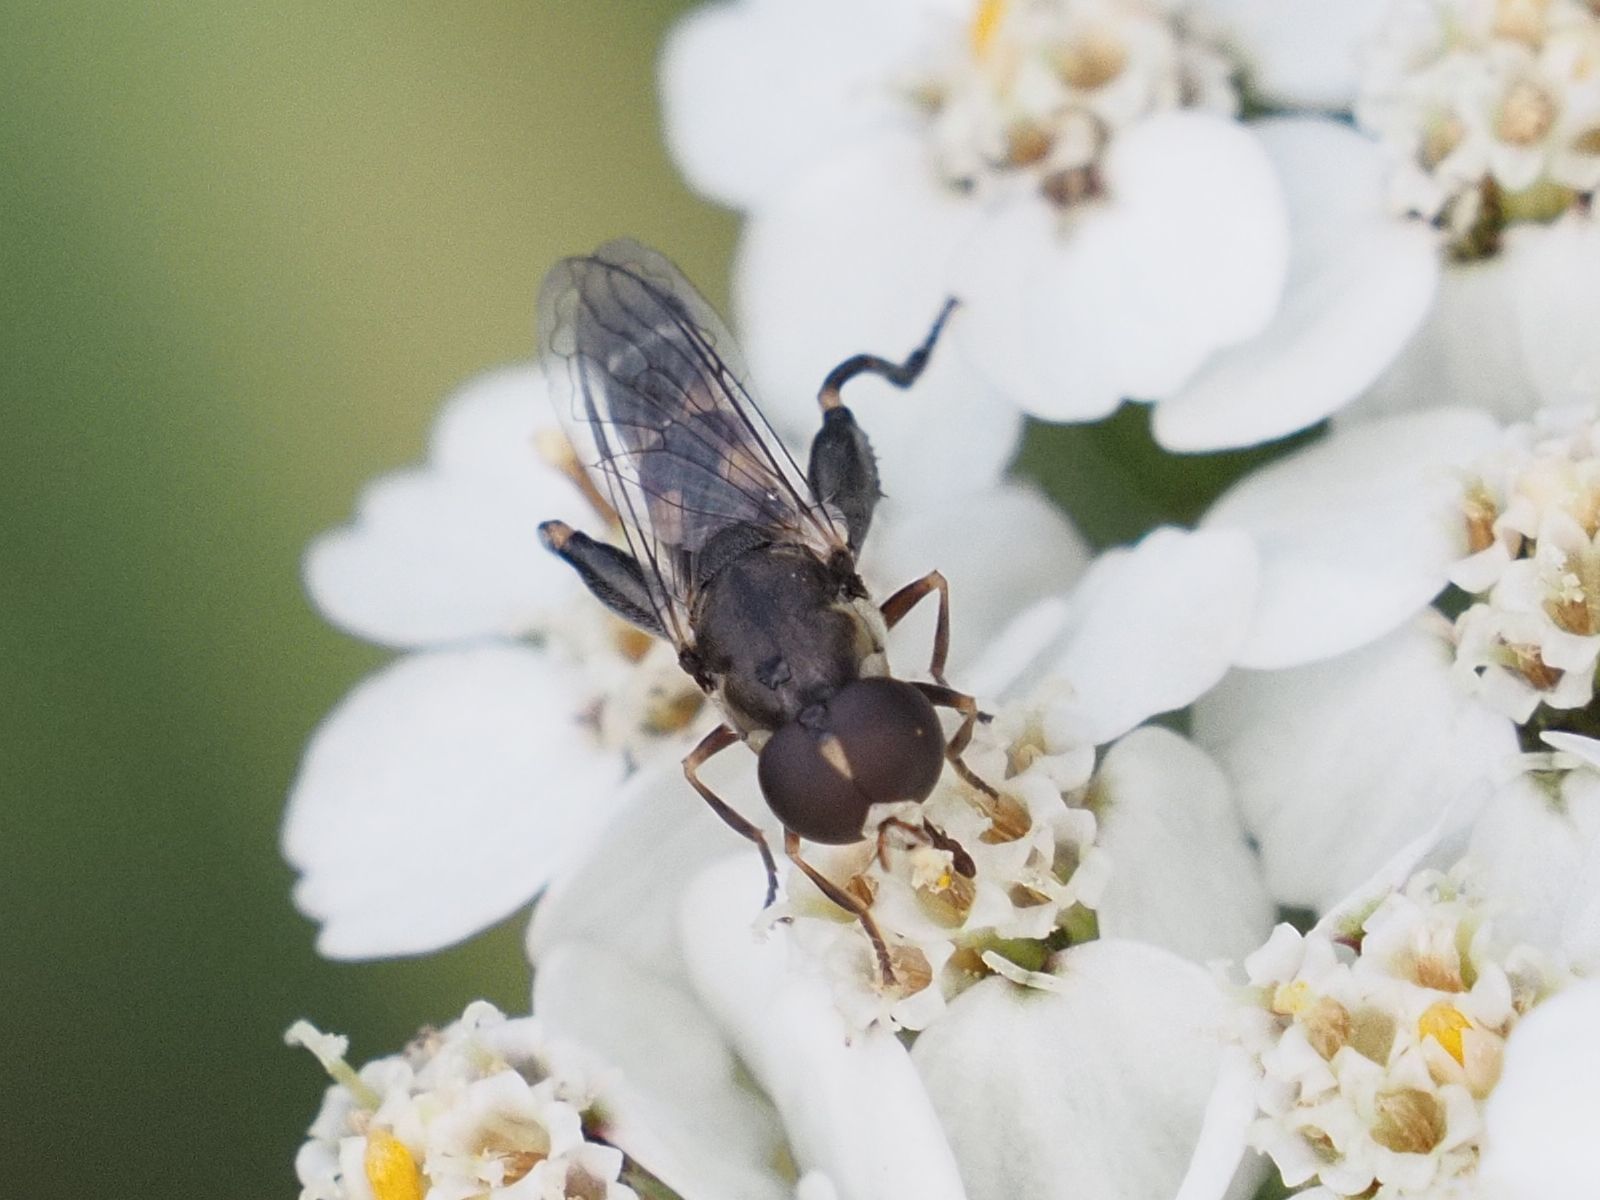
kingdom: Animalia
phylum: Arthropoda
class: Insecta
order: Diptera
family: Syrphidae
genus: Syritta
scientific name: Syritta pipiens
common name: Hover fly
